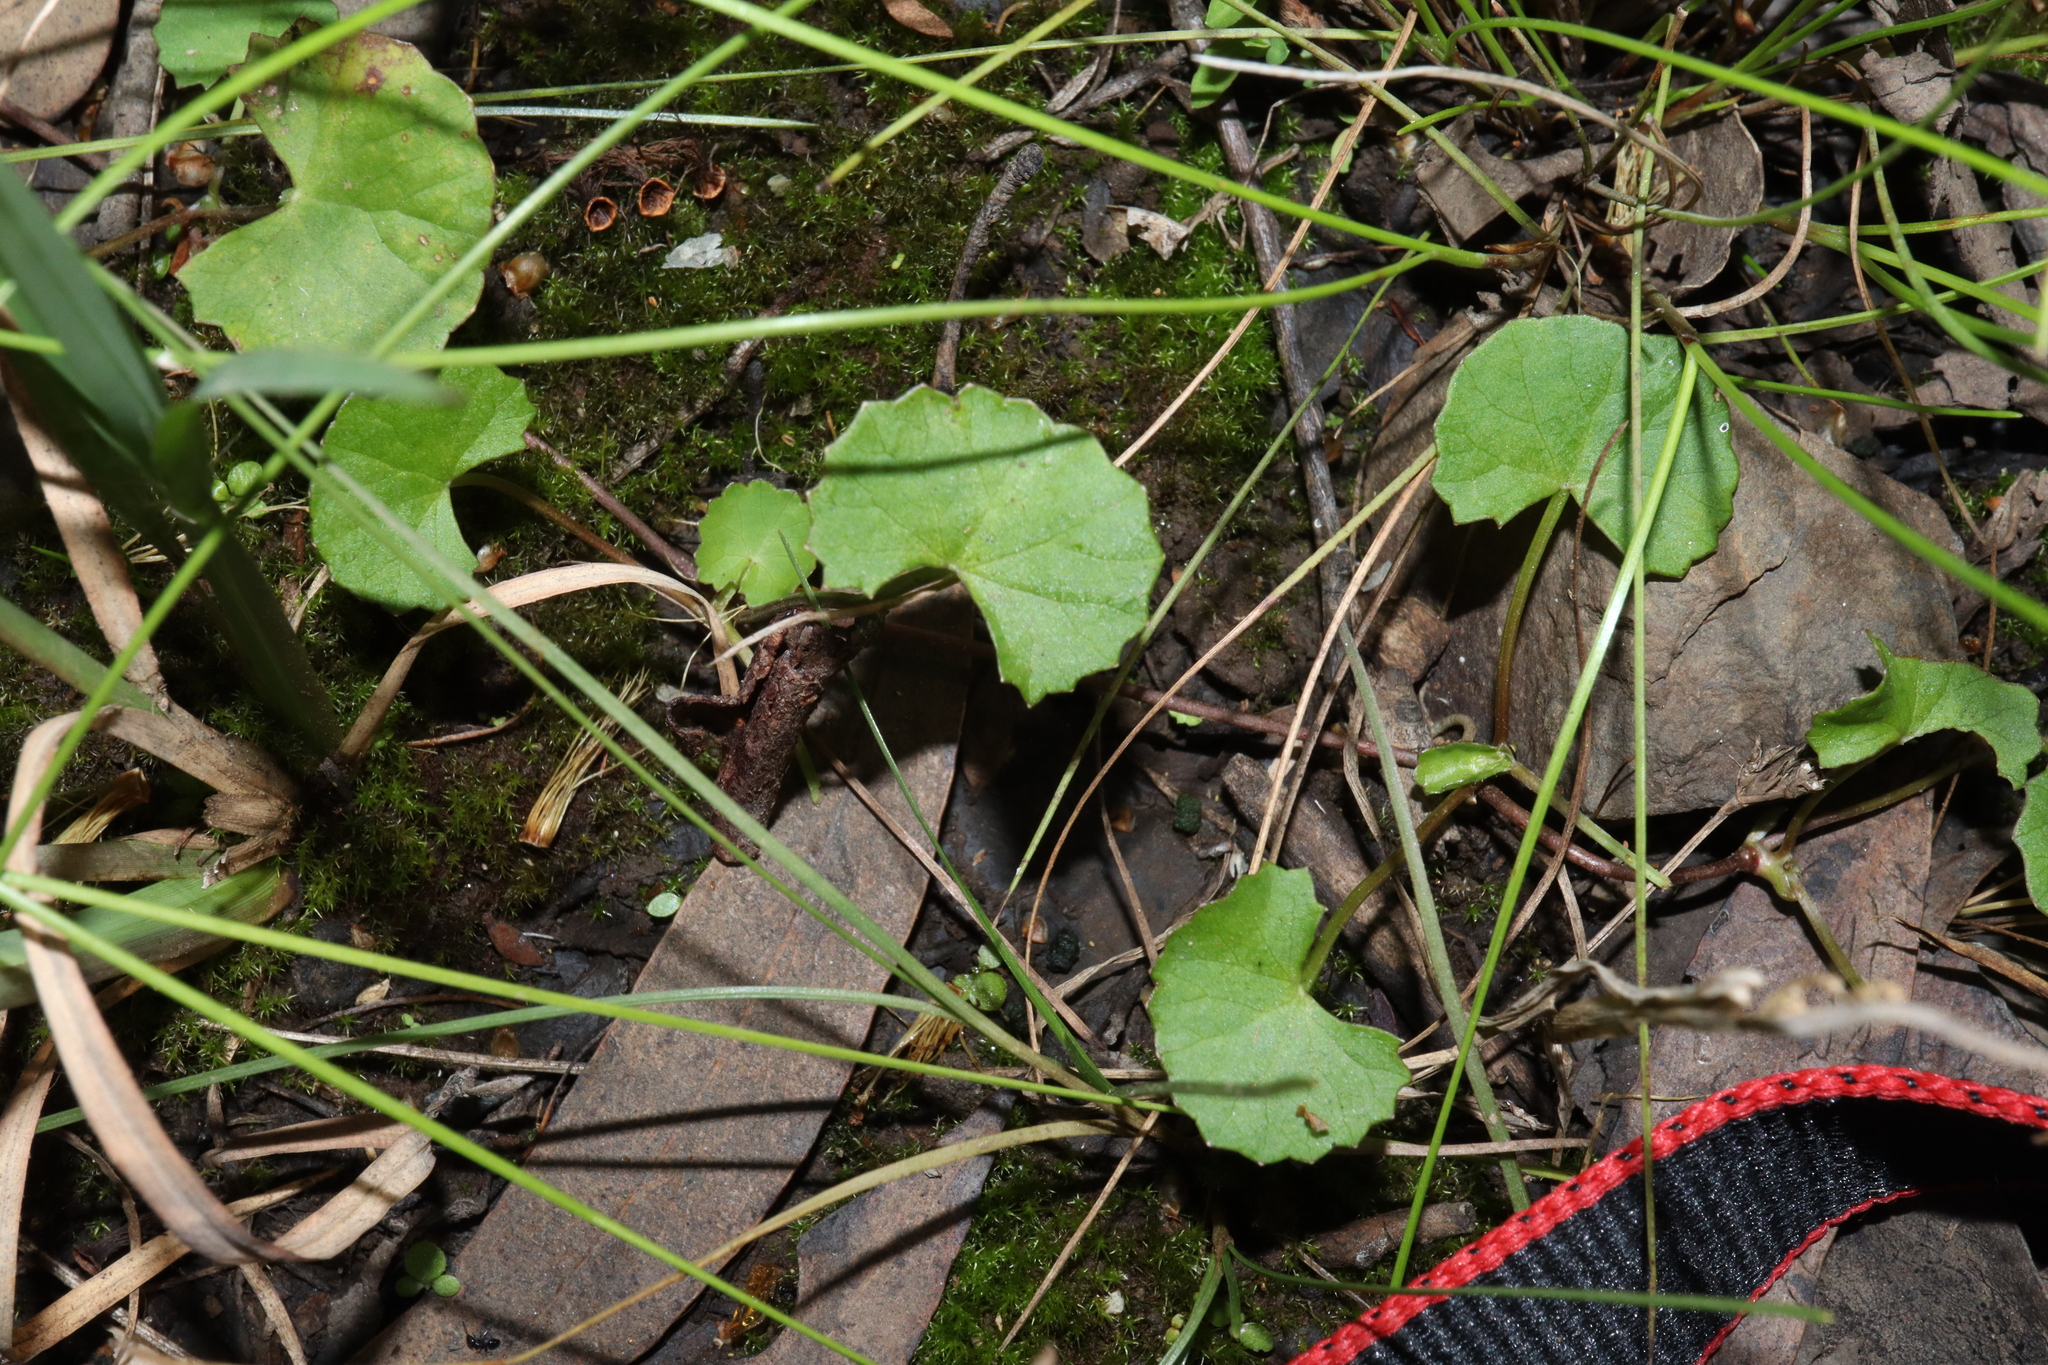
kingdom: Plantae
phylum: Tracheophyta
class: Magnoliopsida
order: Apiales
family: Apiaceae
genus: Centella
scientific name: Centella asiatica
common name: Spadeleaf
